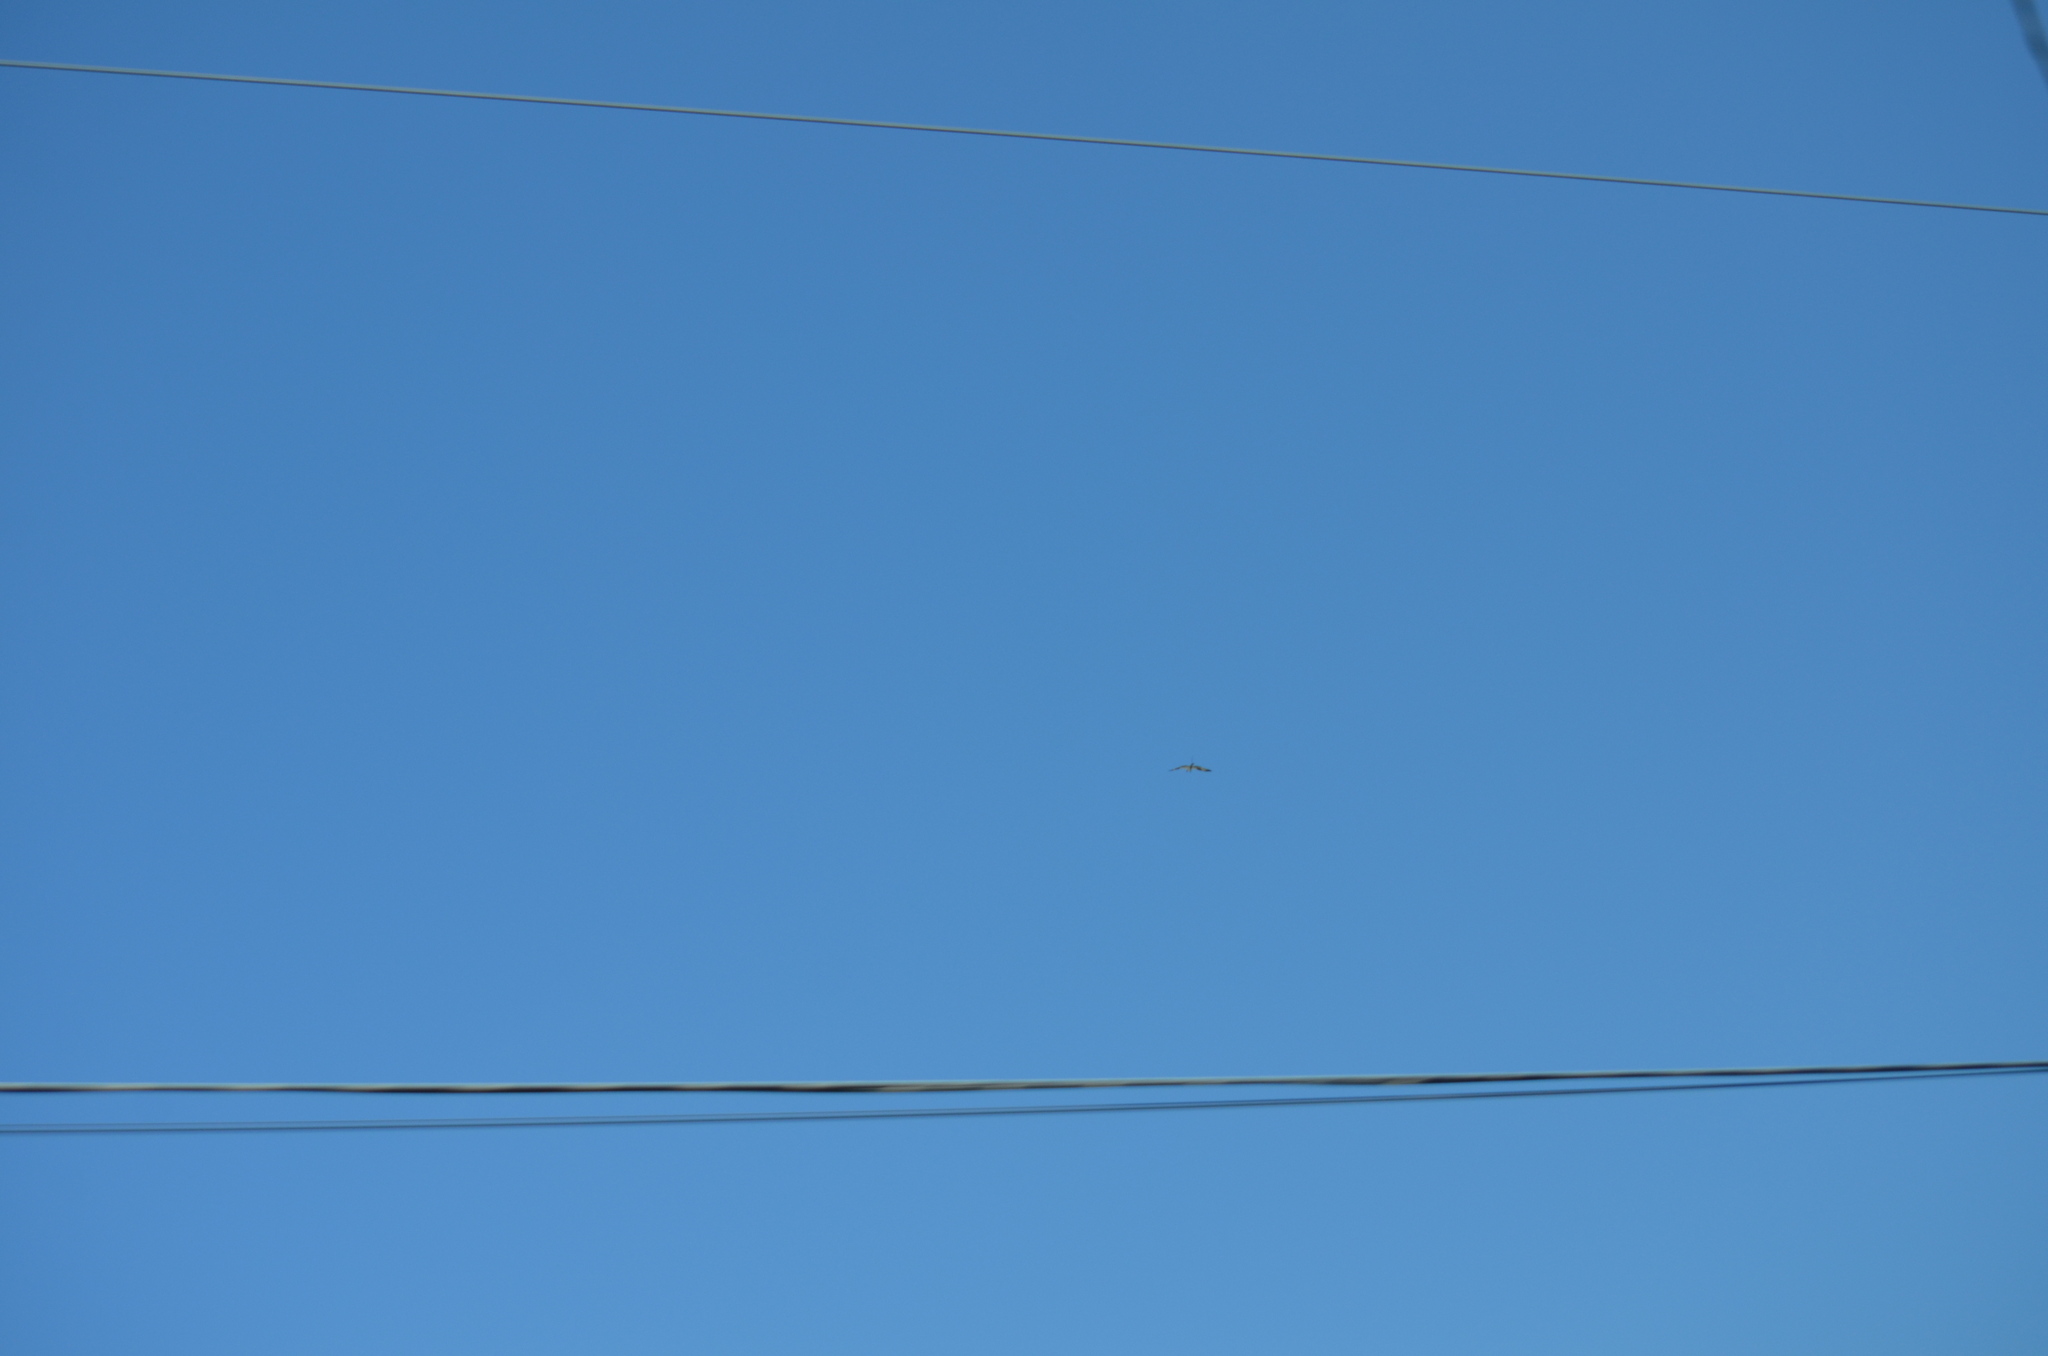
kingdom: Animalia
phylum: Chordata
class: Aves
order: Accipitriformes
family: Pandionidae
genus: Pandion
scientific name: Pandion haliaetus
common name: Osprey
